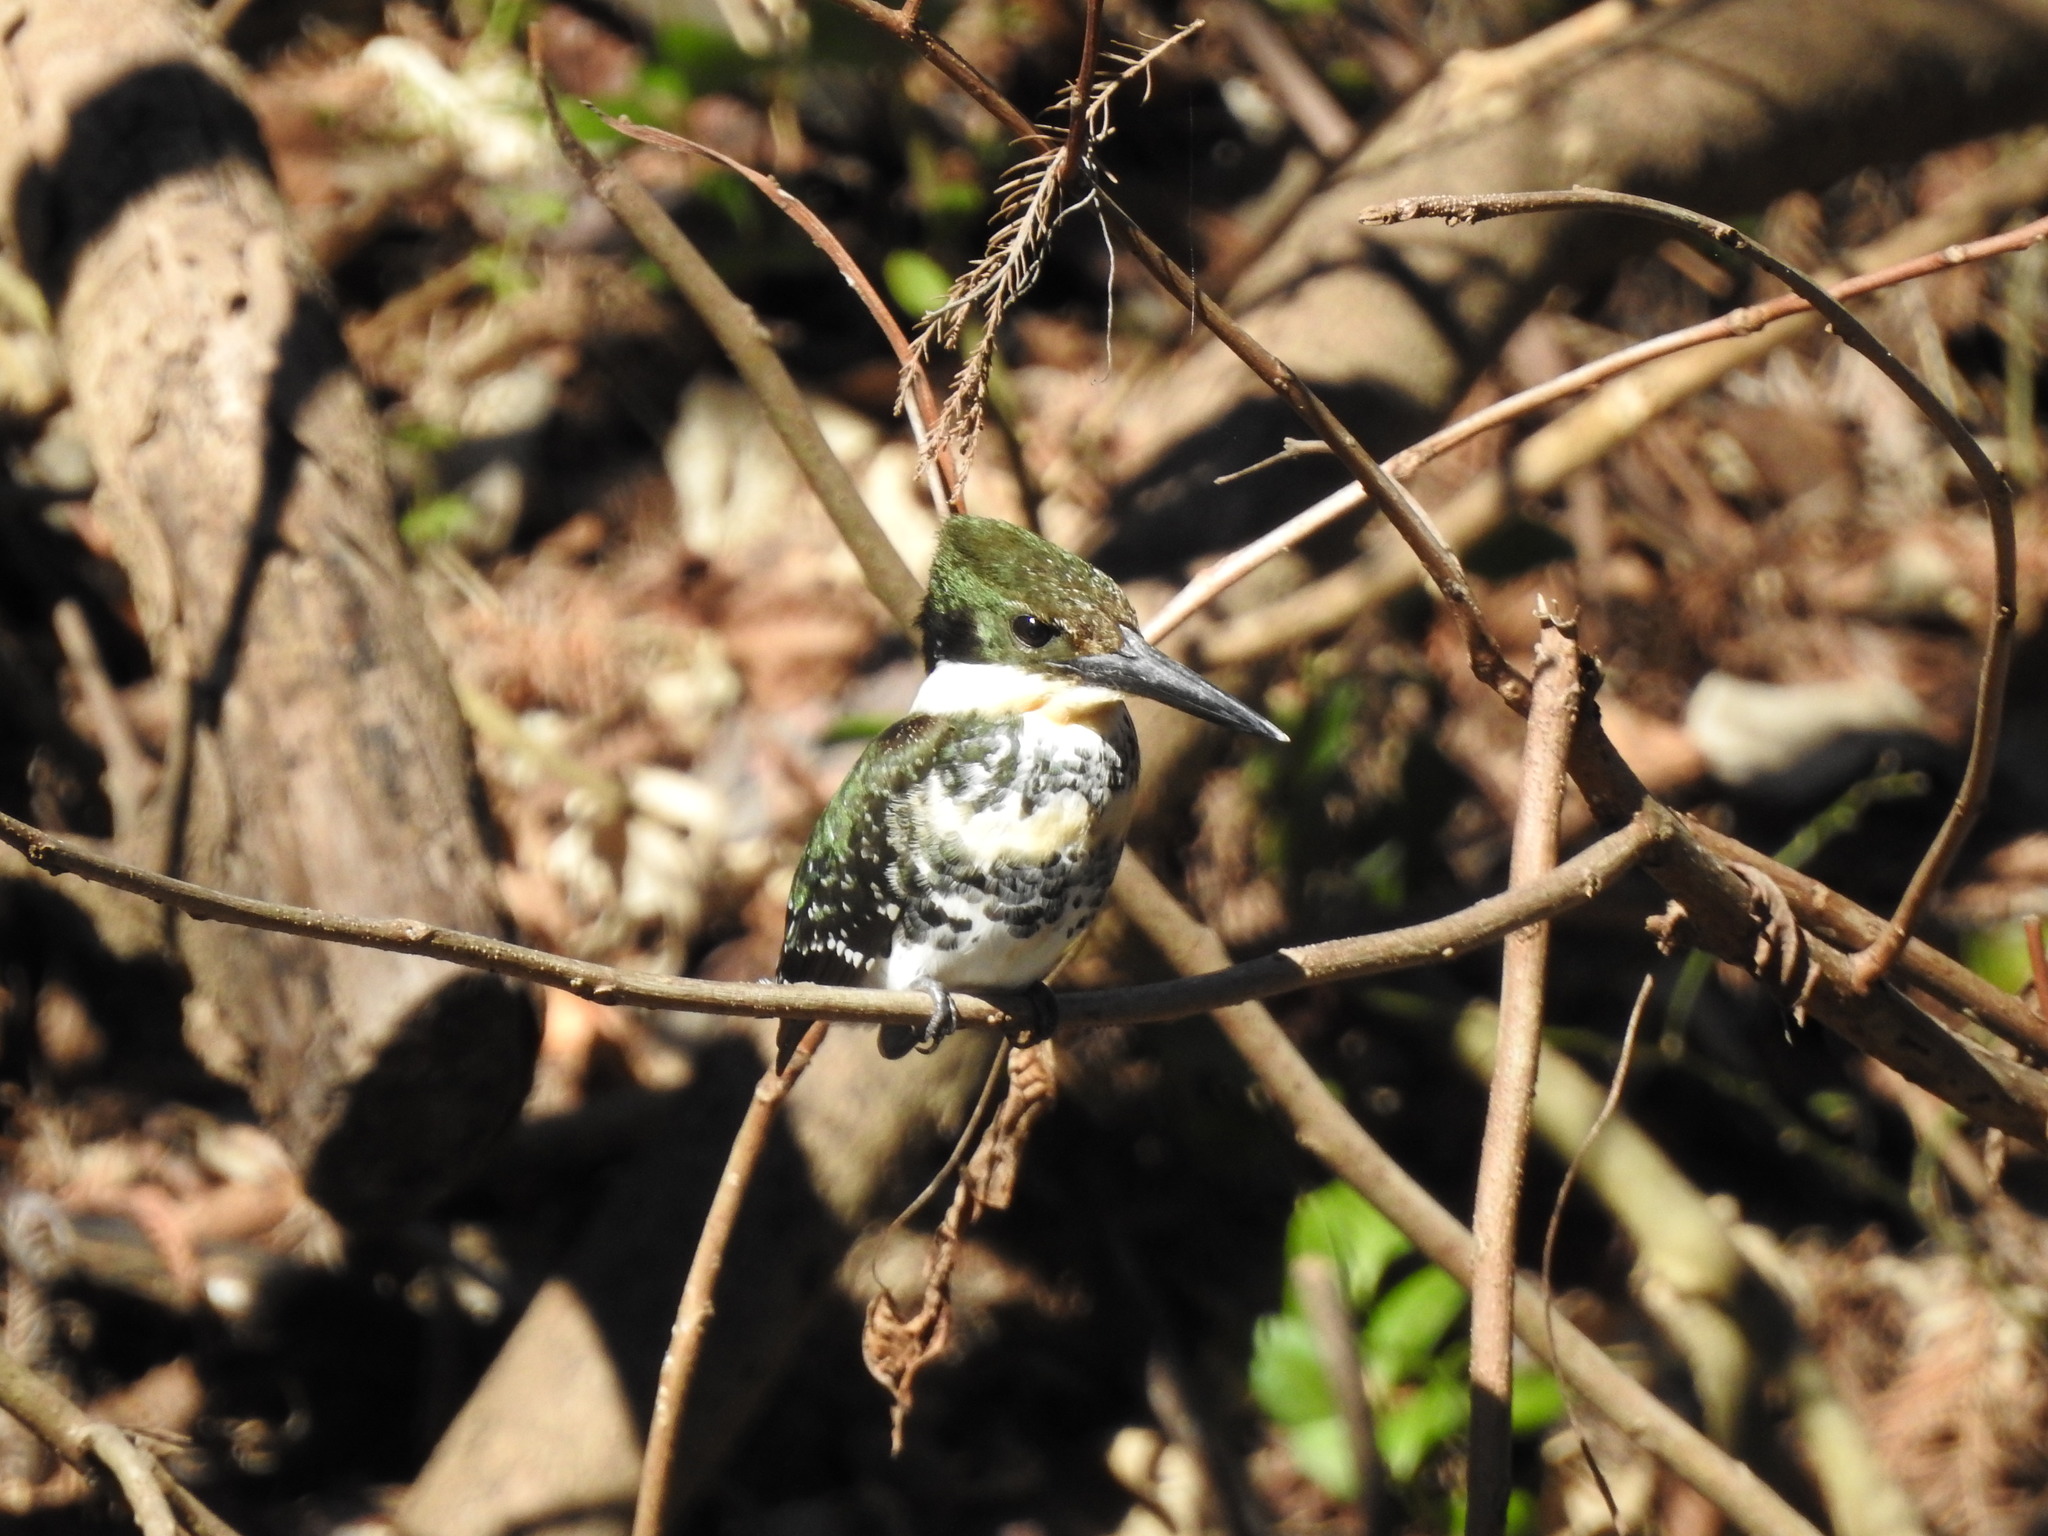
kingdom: Animalia
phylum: Chordata
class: Aves
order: Coraciiformes
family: Alcedinidae
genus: Chloroceryle
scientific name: Chloroceryle americana
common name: Green kingfisher
